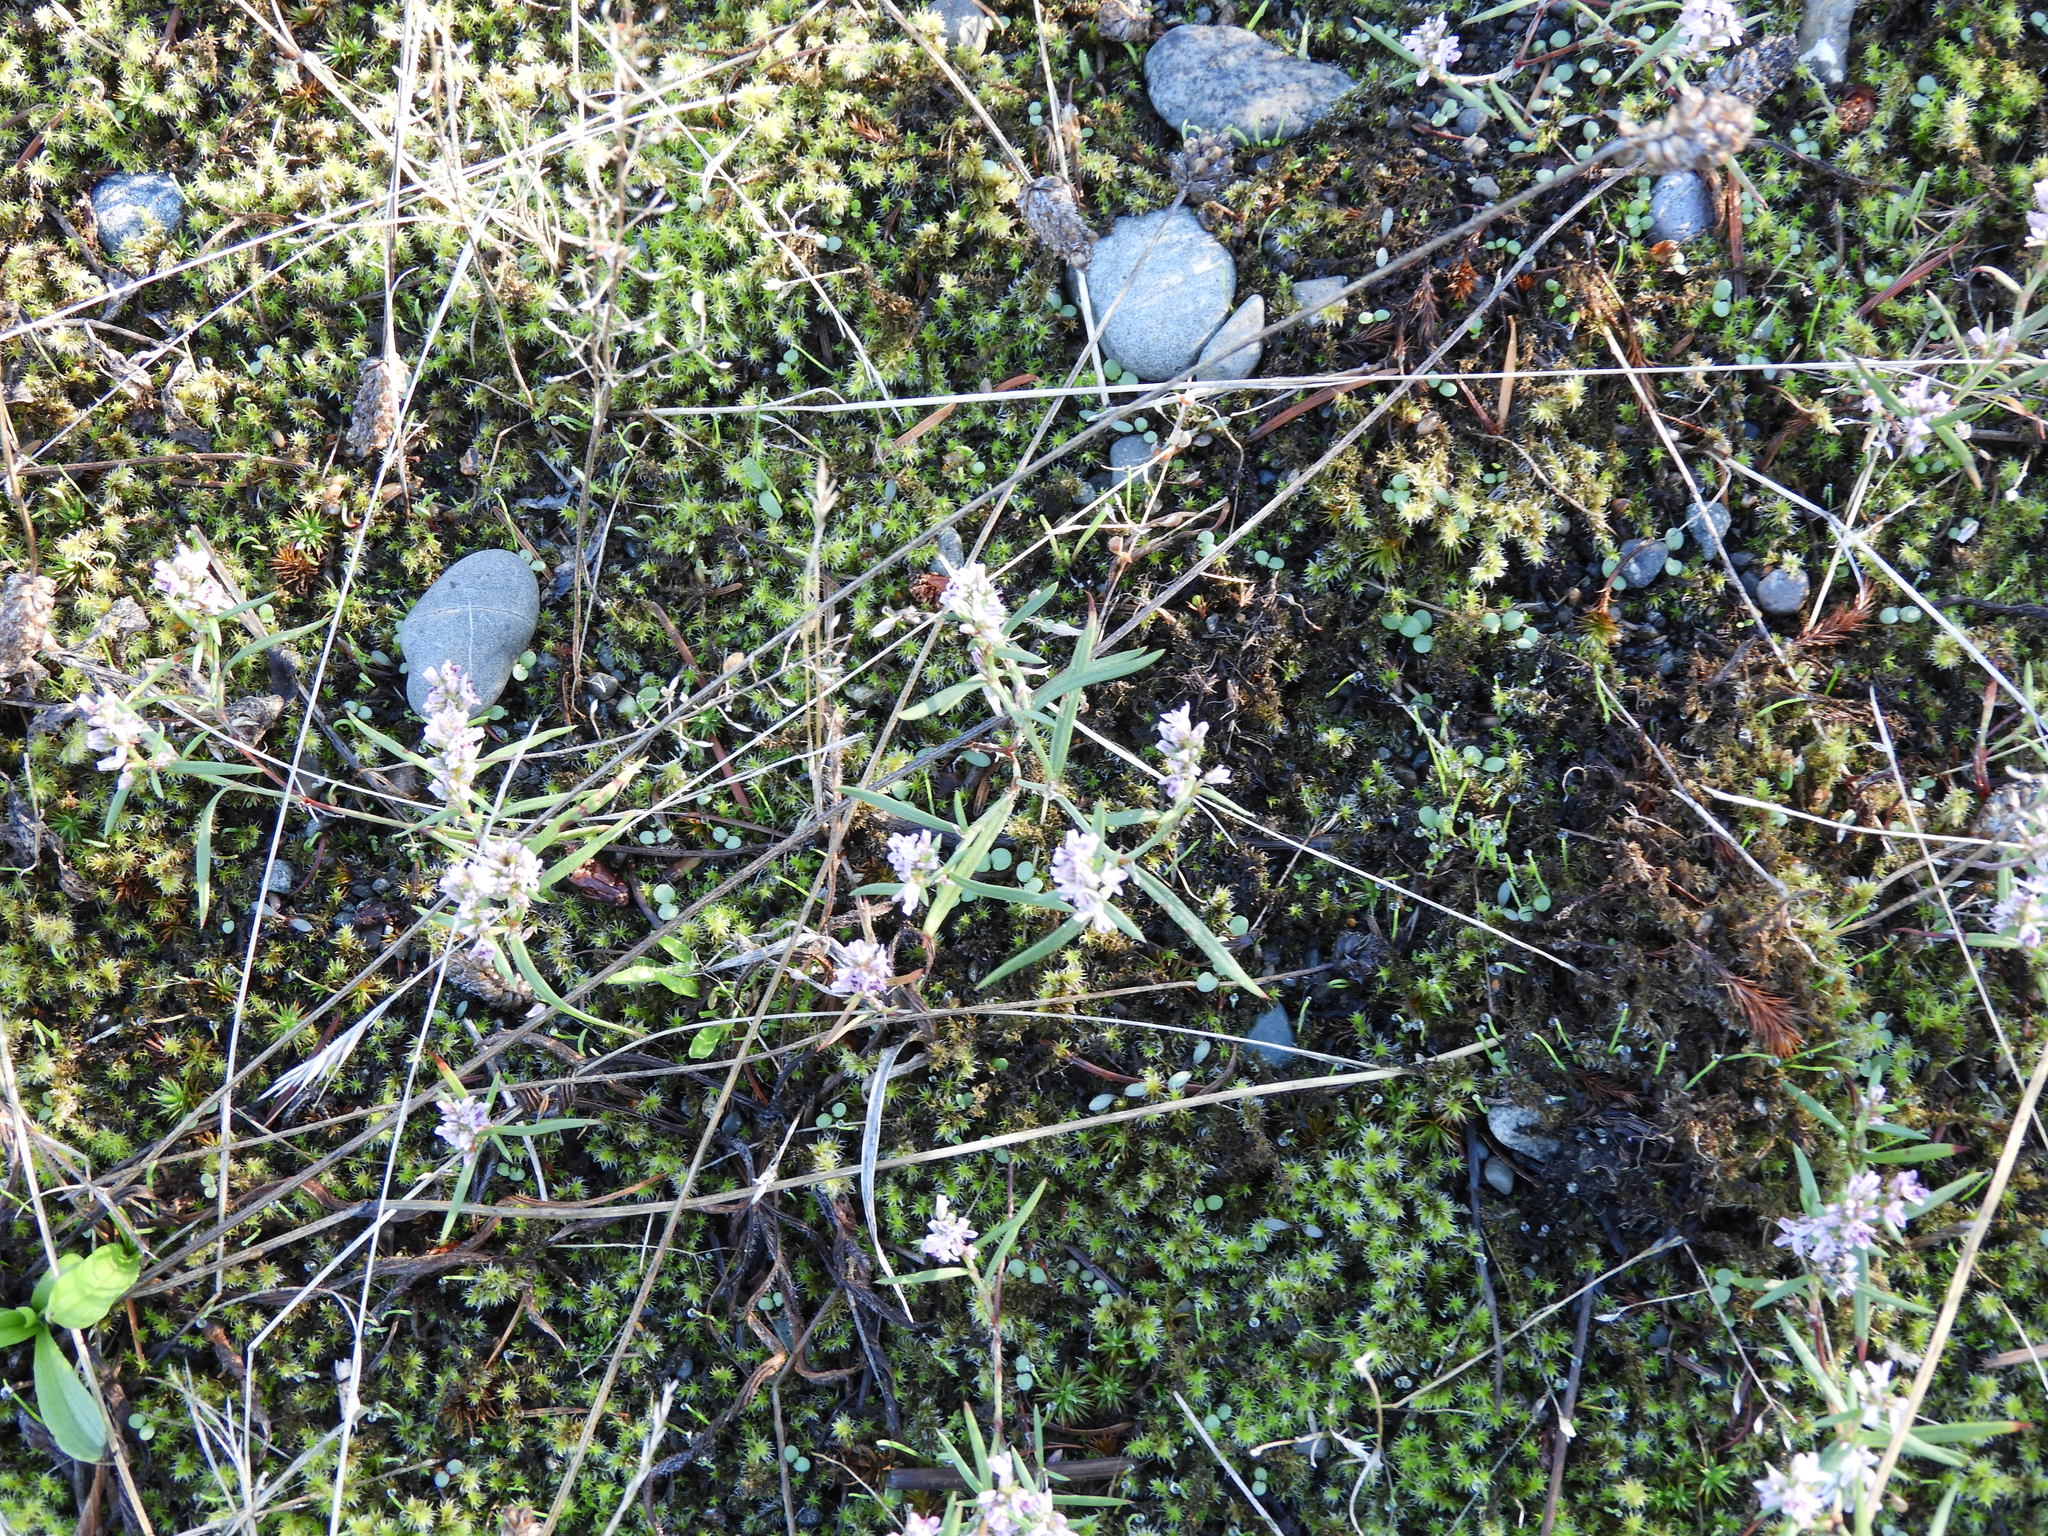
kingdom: Plantae
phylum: Tracheophyta
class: Magnoliopsida
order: Caryophyllales
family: Polygonaceae
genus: Polygonum
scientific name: Polygonum spergulariiforme
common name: Fall knotweed
